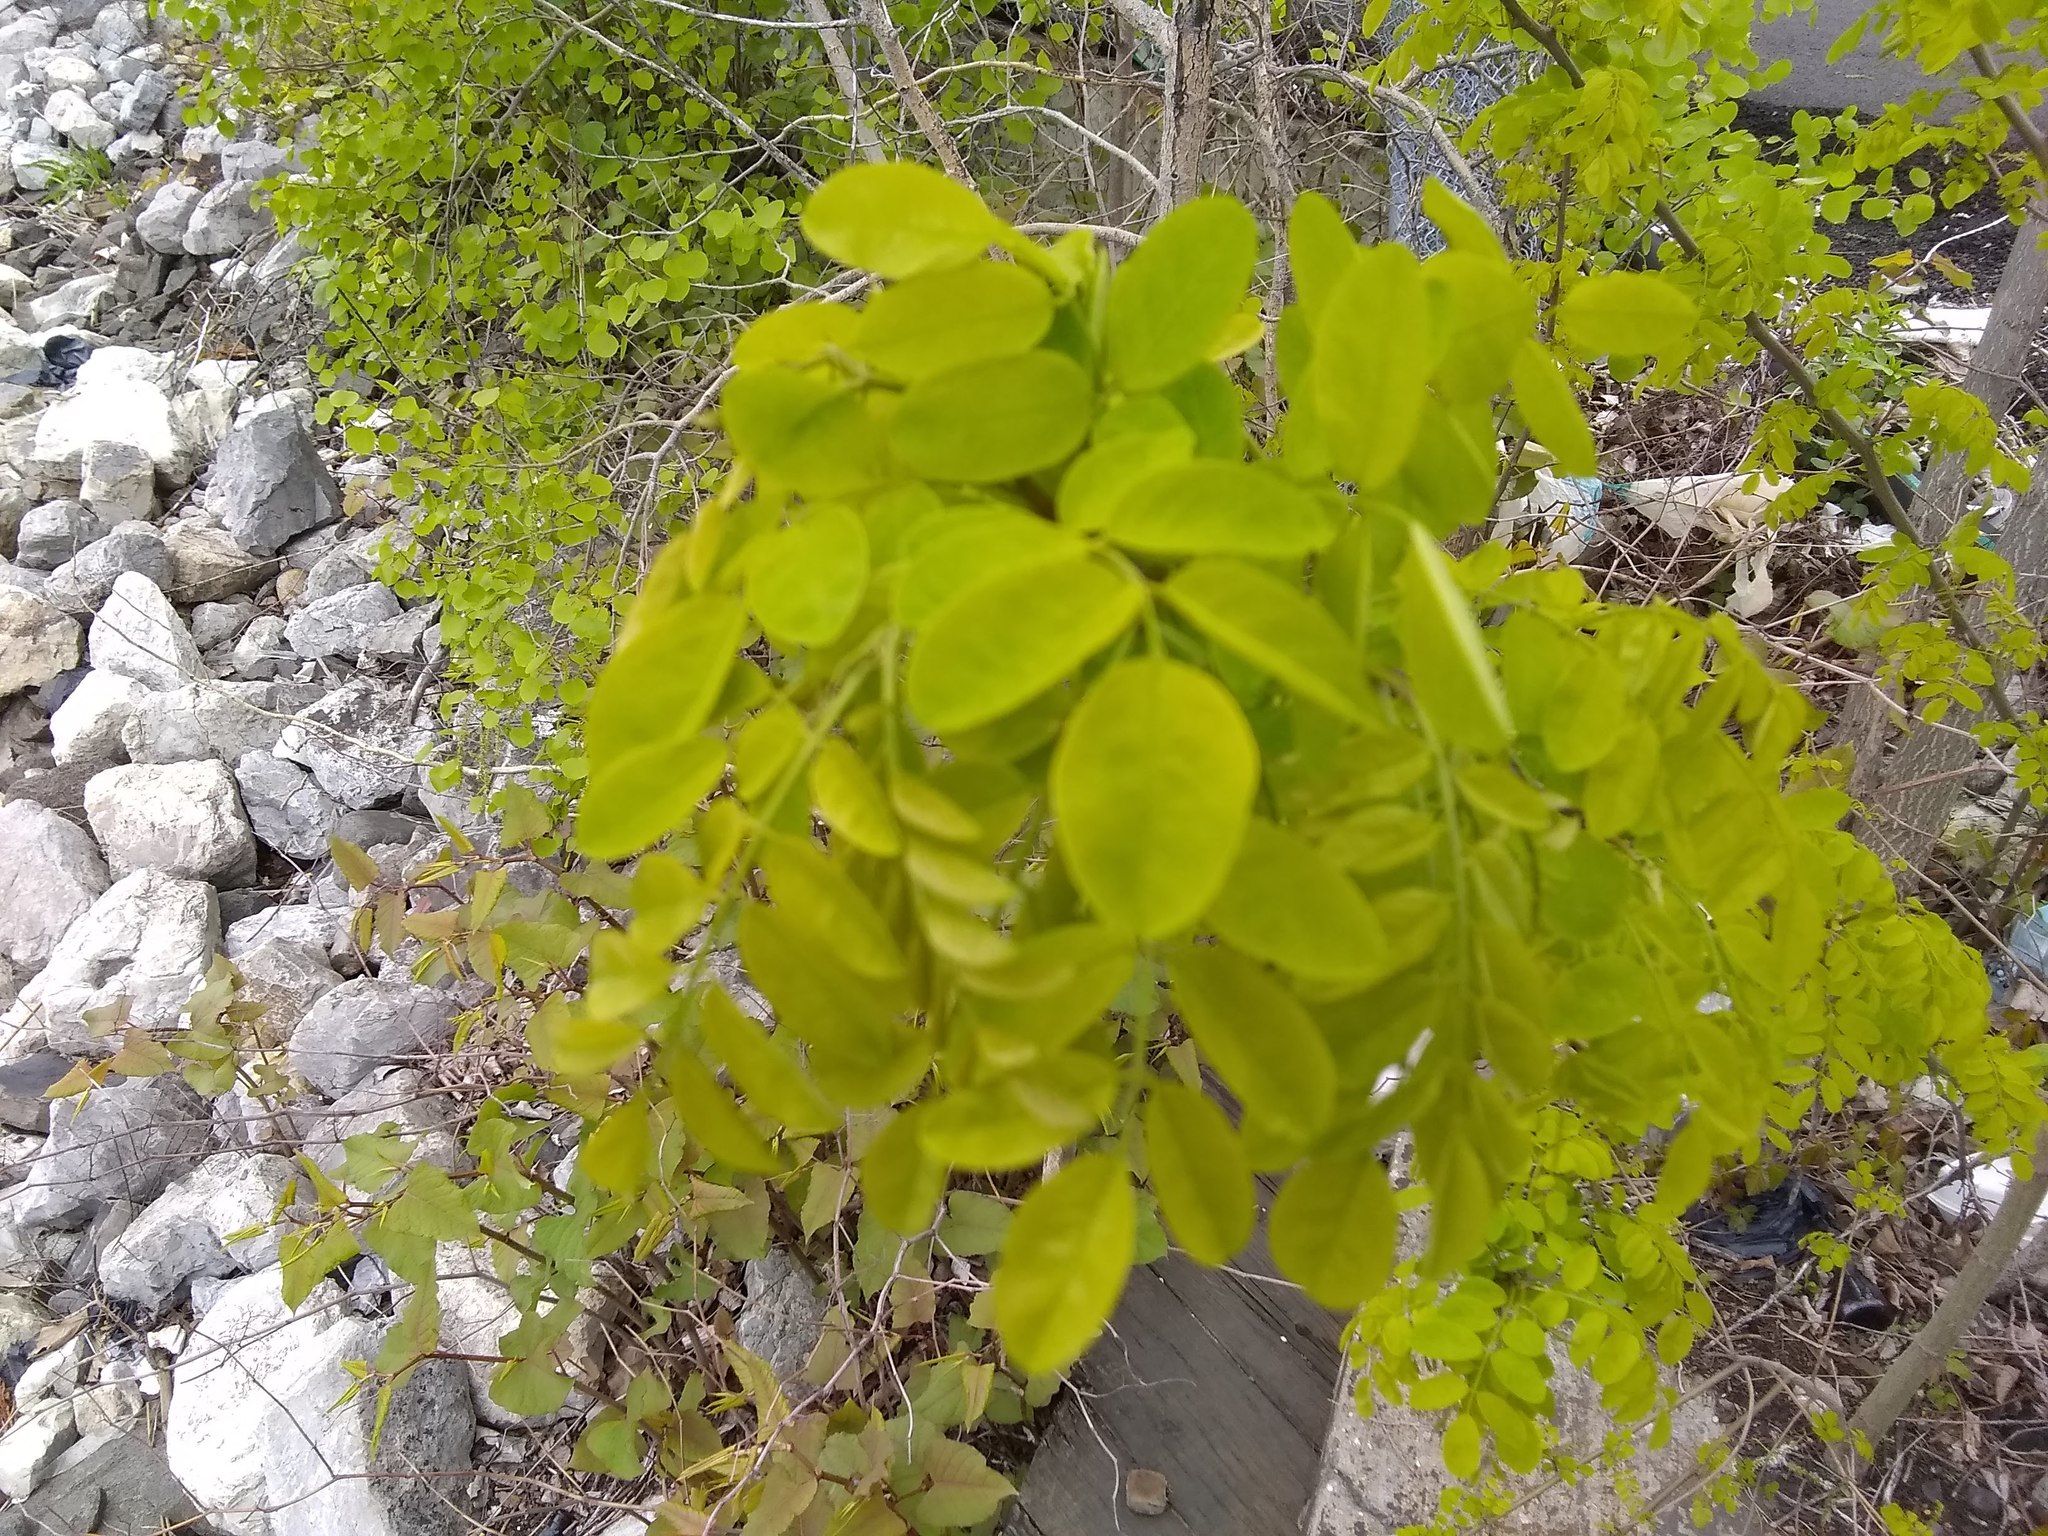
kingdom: Plantae
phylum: Tracheophyta
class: Magnoliopsida
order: Fabales
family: Fabaceae
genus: Robinia
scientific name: Robinia pseudoacacia
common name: Black locust
